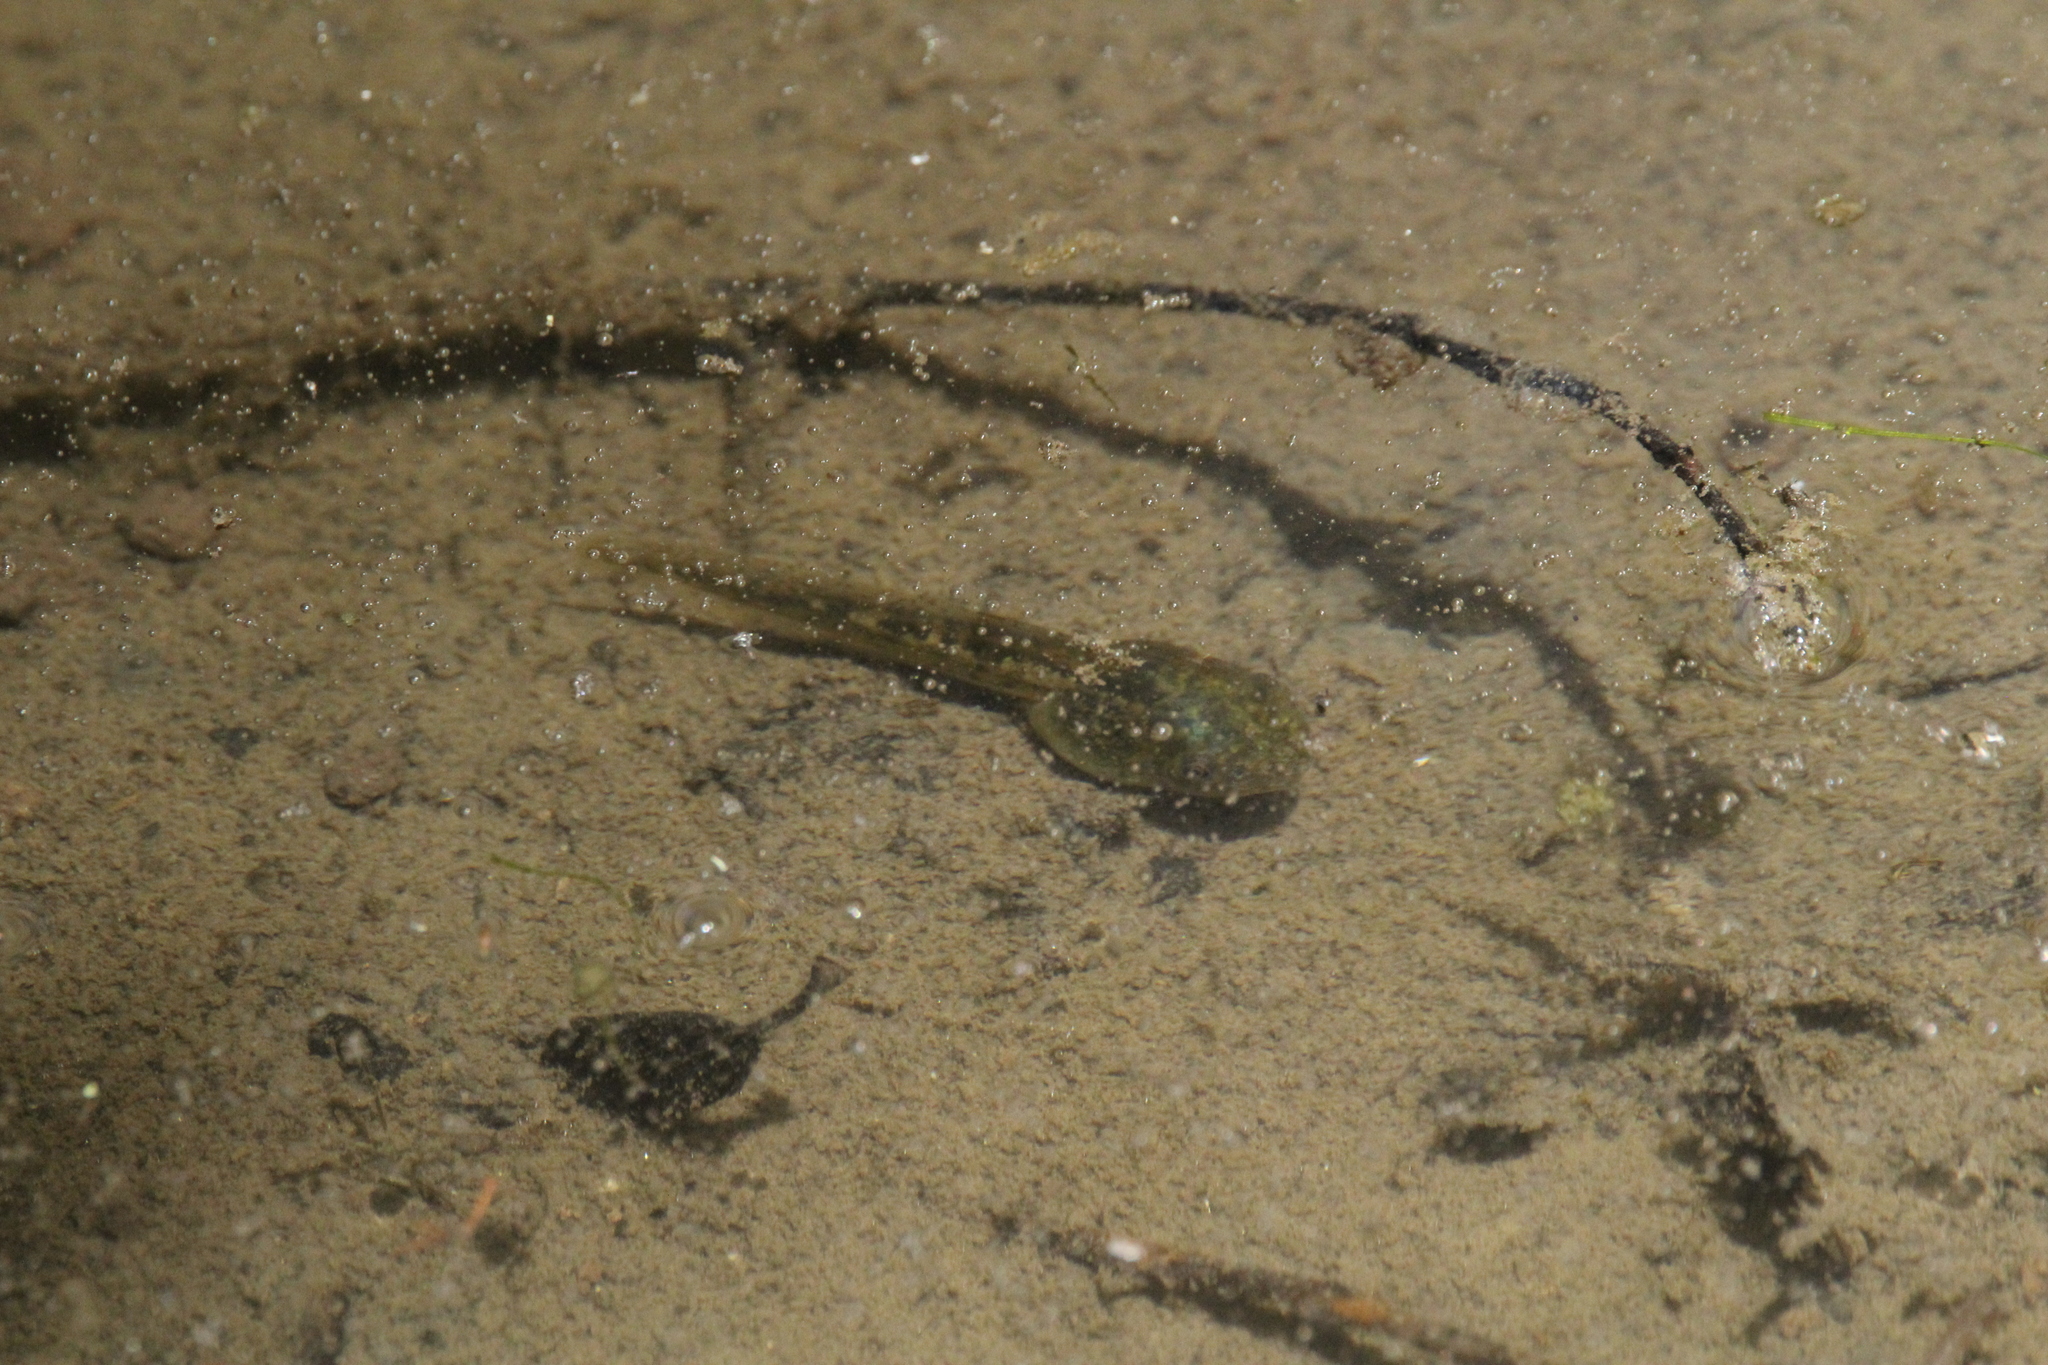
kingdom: Animalia
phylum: Chordata
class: Amphibia
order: Anura
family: Hylidae
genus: Pseudacris
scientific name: Pseudacris regilla
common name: Pacific chorus frog
